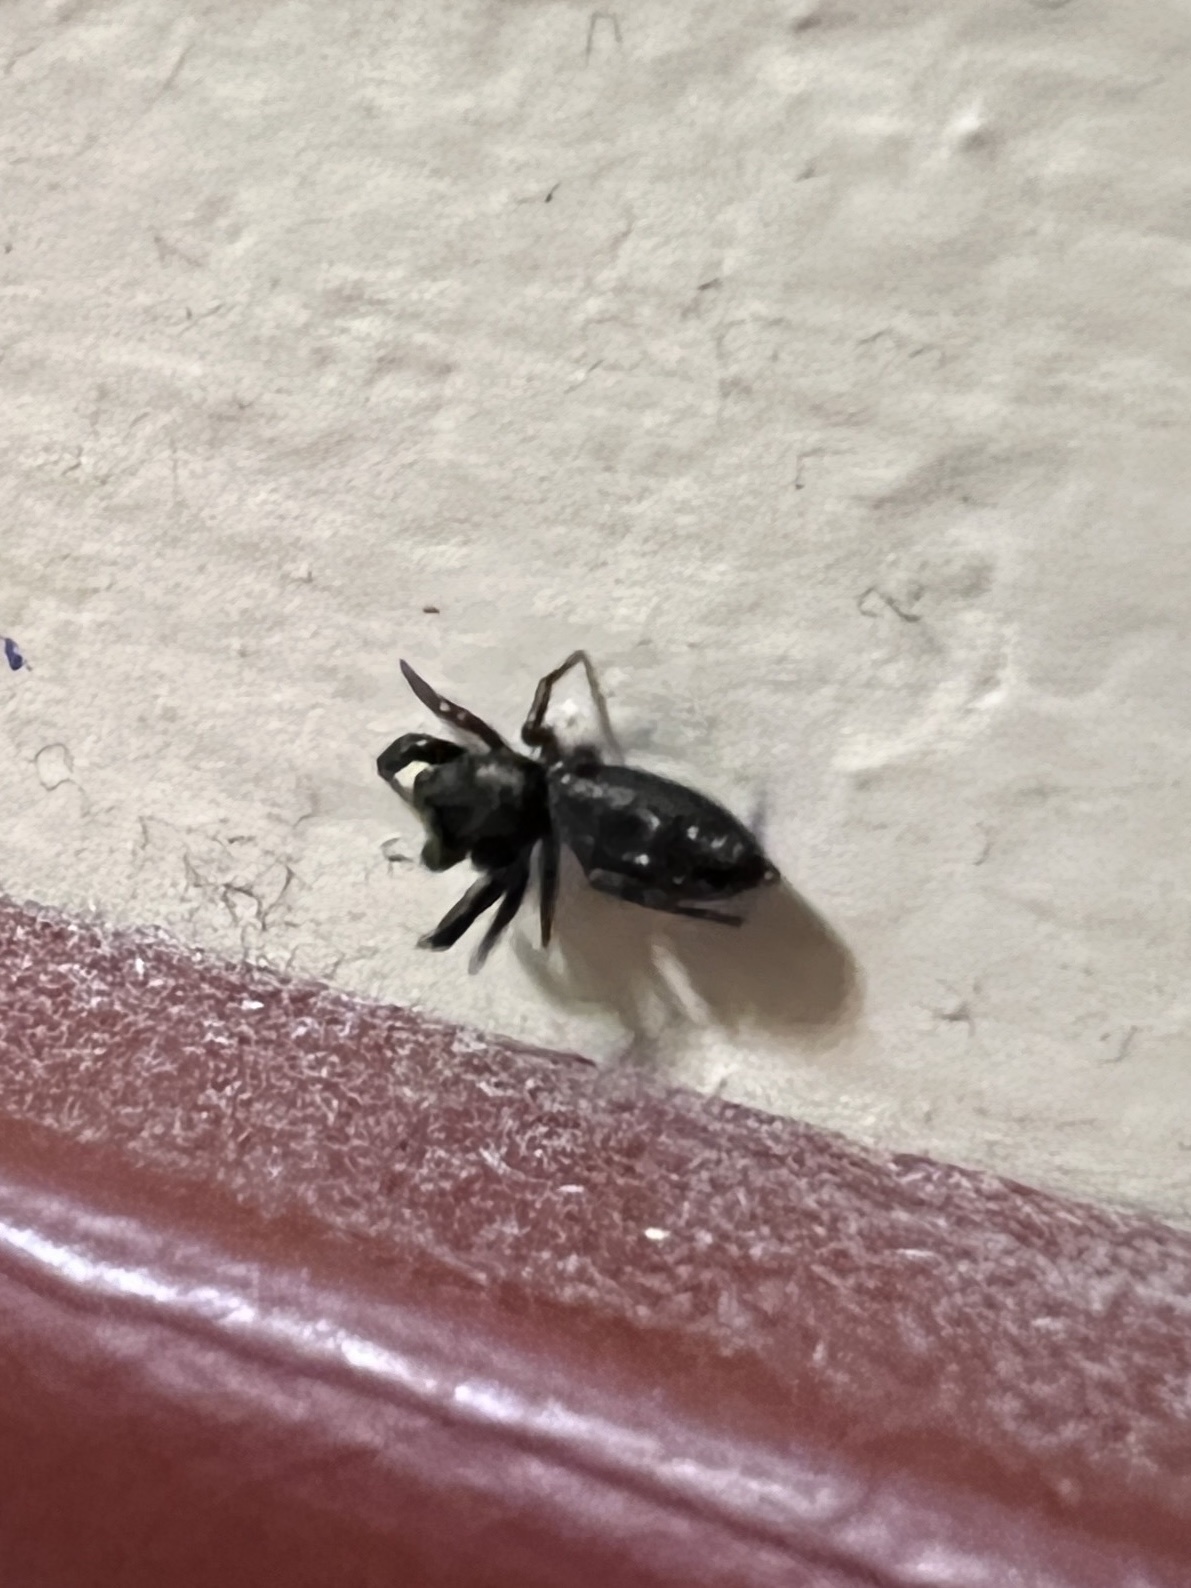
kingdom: Animalia
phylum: Arthropoda
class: Arachnida
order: Araneae
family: Salticidae
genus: Metacyrba
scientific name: Metacyrba taeniola
